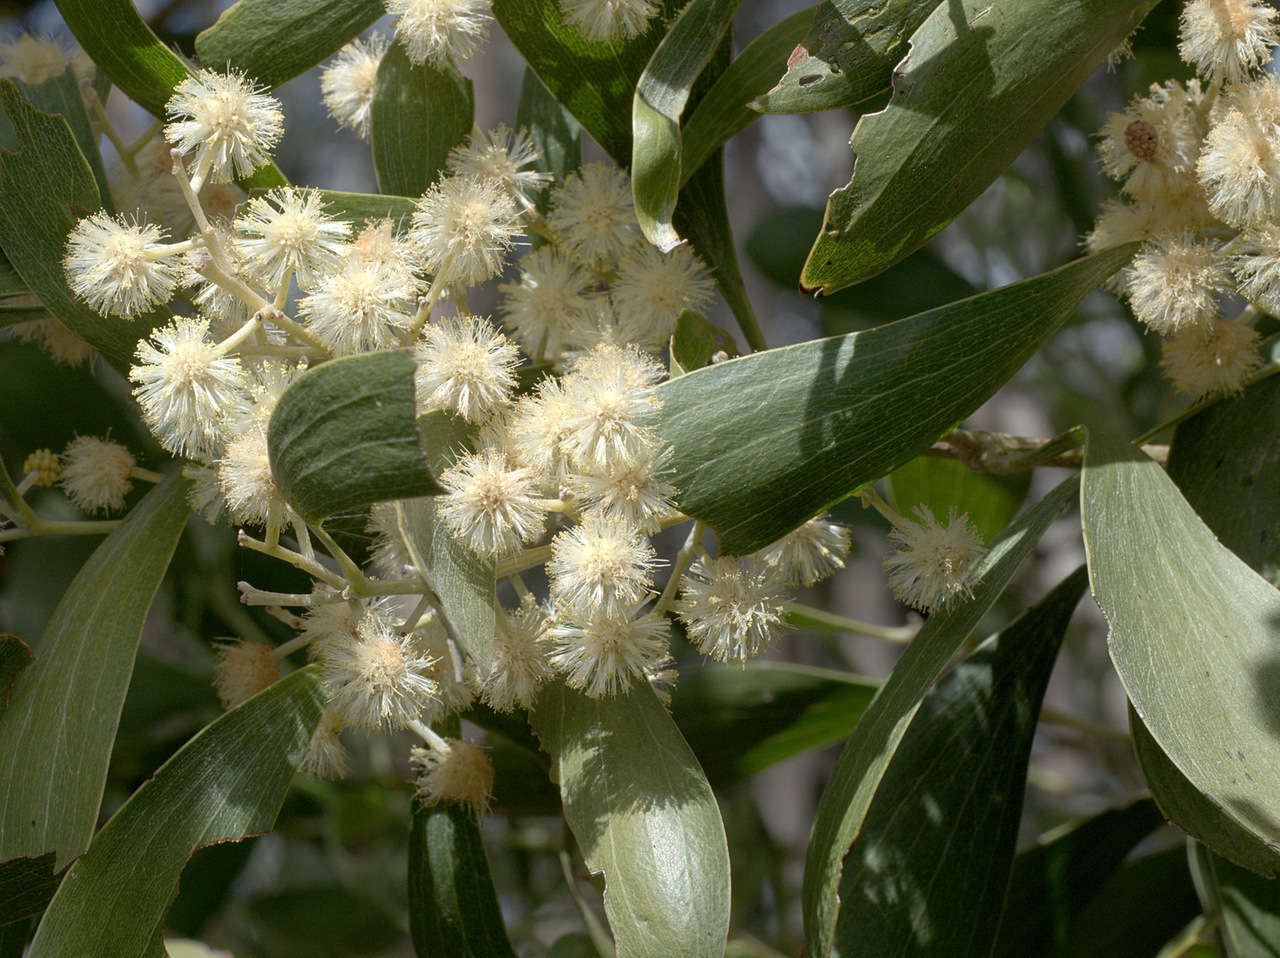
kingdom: Plantae
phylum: Tracheophyta
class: Magnoliopsida
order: Fabales
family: Fabaceae
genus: Acacia
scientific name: Acacia melanoxylon
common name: Blackwood
